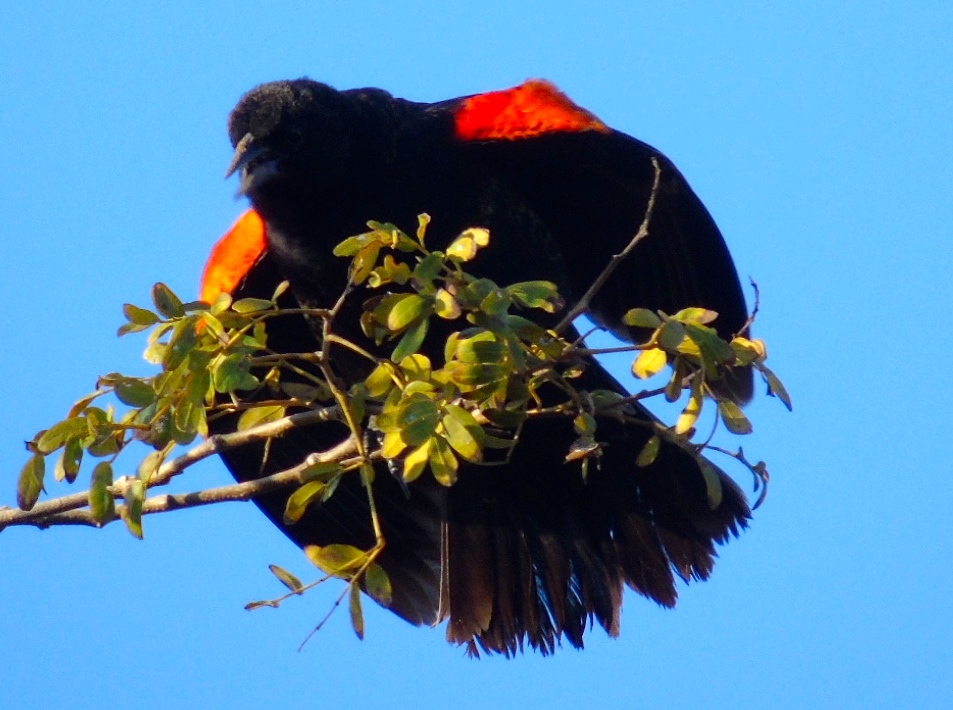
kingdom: Animalia
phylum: Chordata
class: Aves
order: Passeriformes
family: Icteridae
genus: Agelaius
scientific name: Agelaius phoeniceus
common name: Red-winged blackbird
